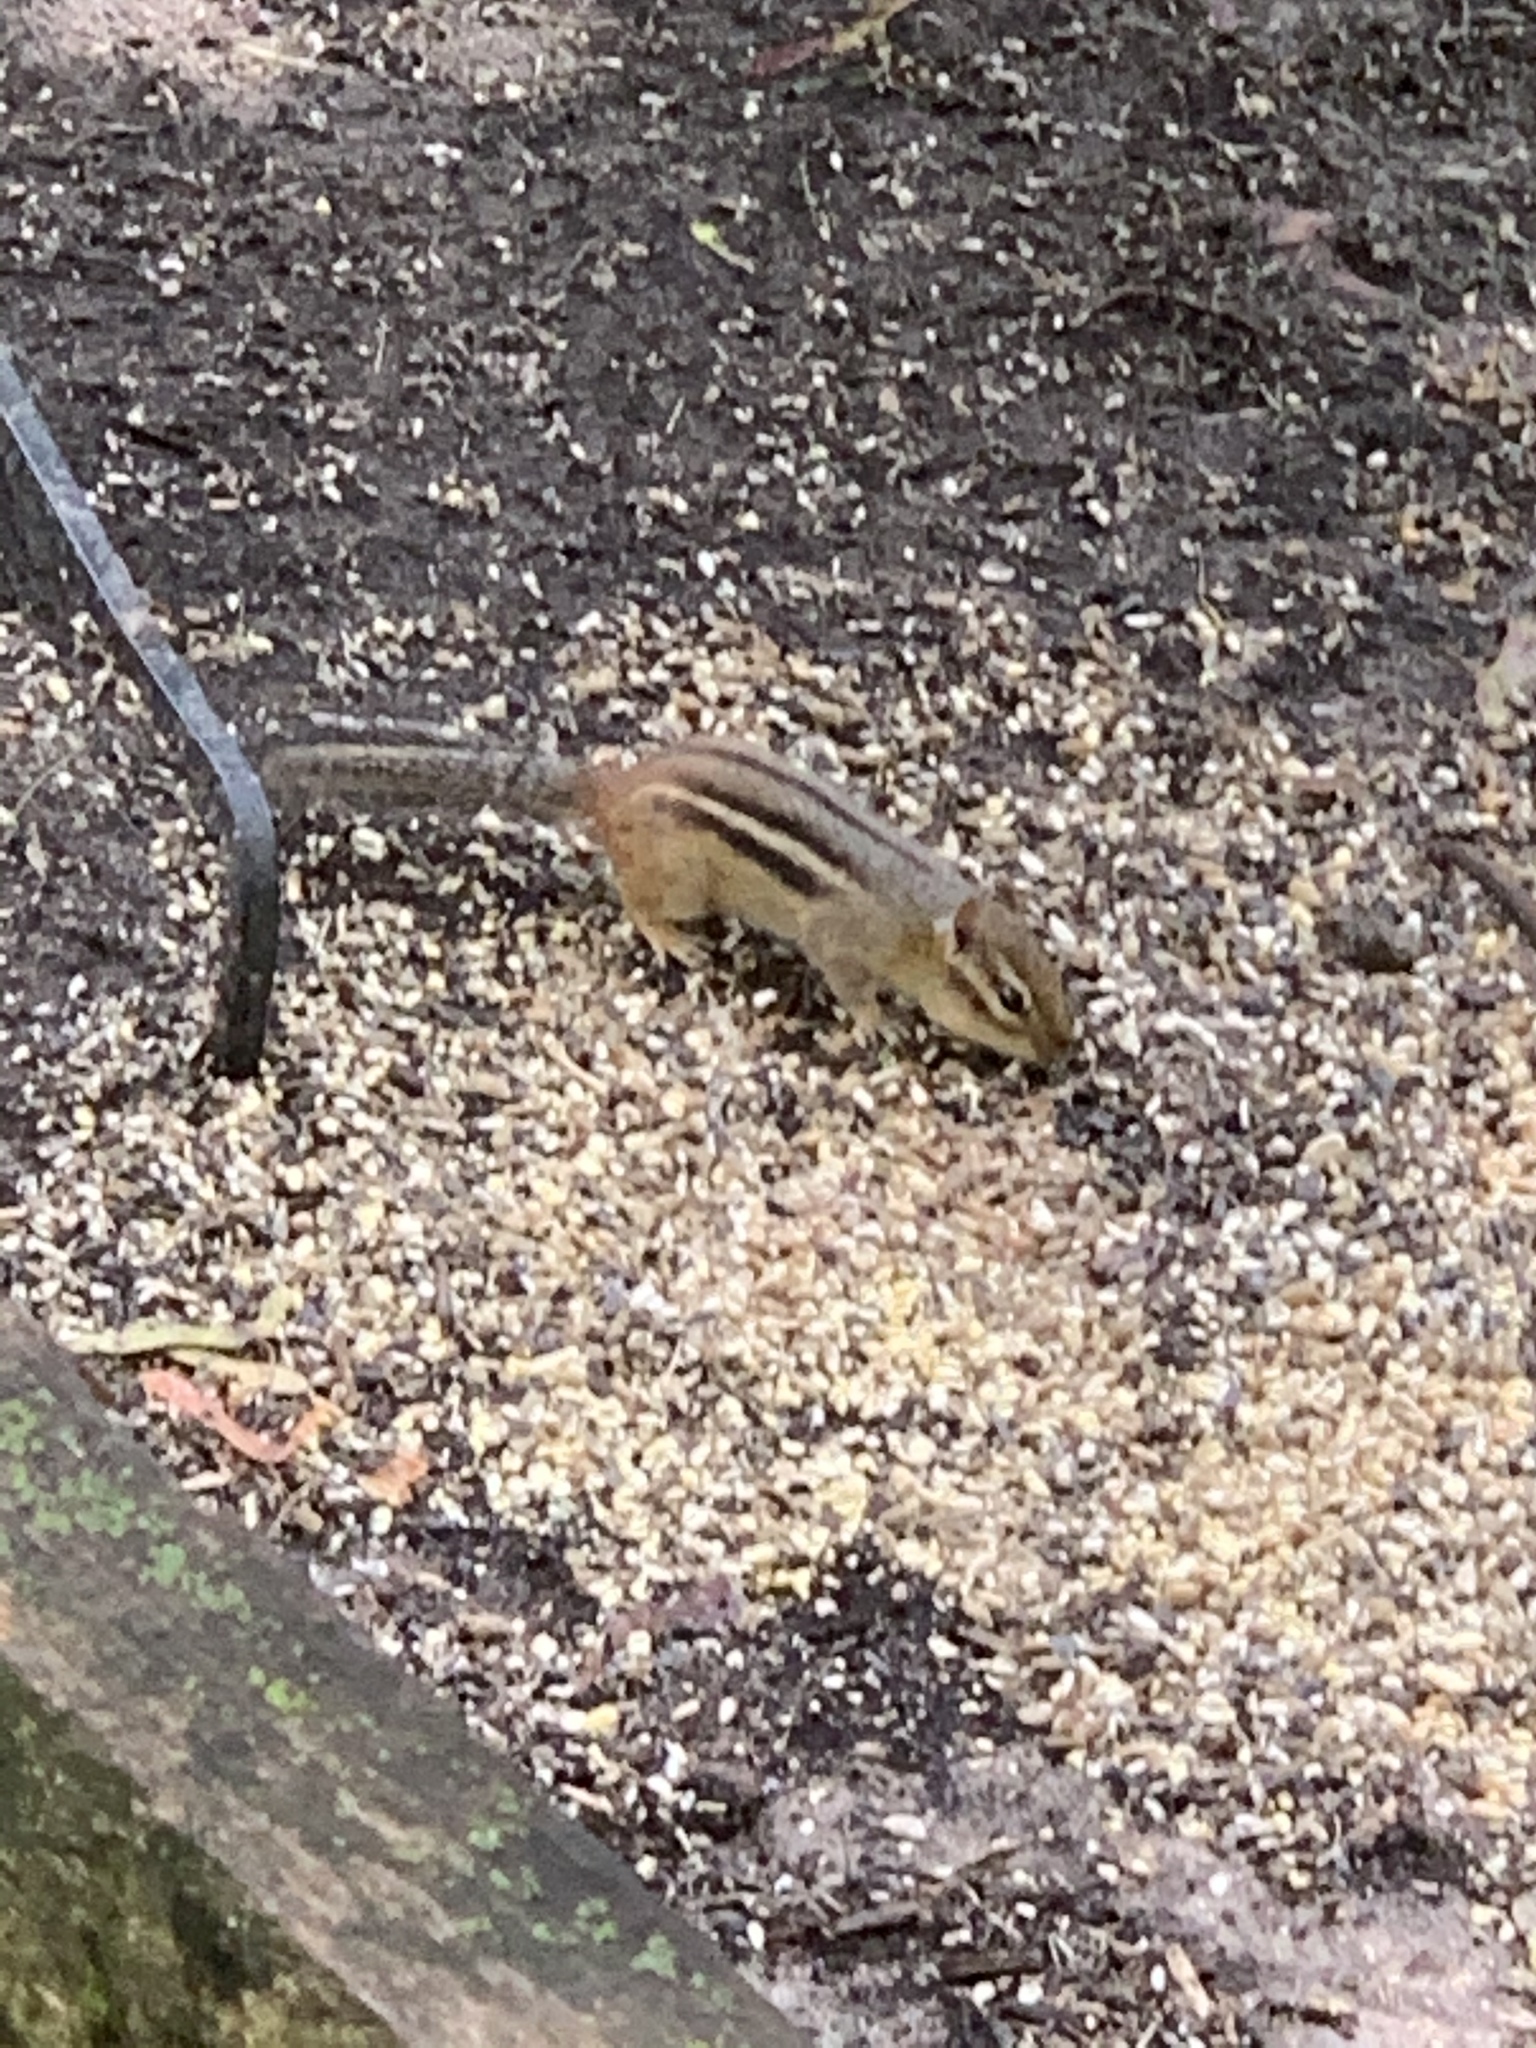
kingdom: Animalia
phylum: Chordata
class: Mammalia
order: Rodentia
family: Sciuridae
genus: Tamias
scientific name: Tamias striatus
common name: Eastern chipmunk
